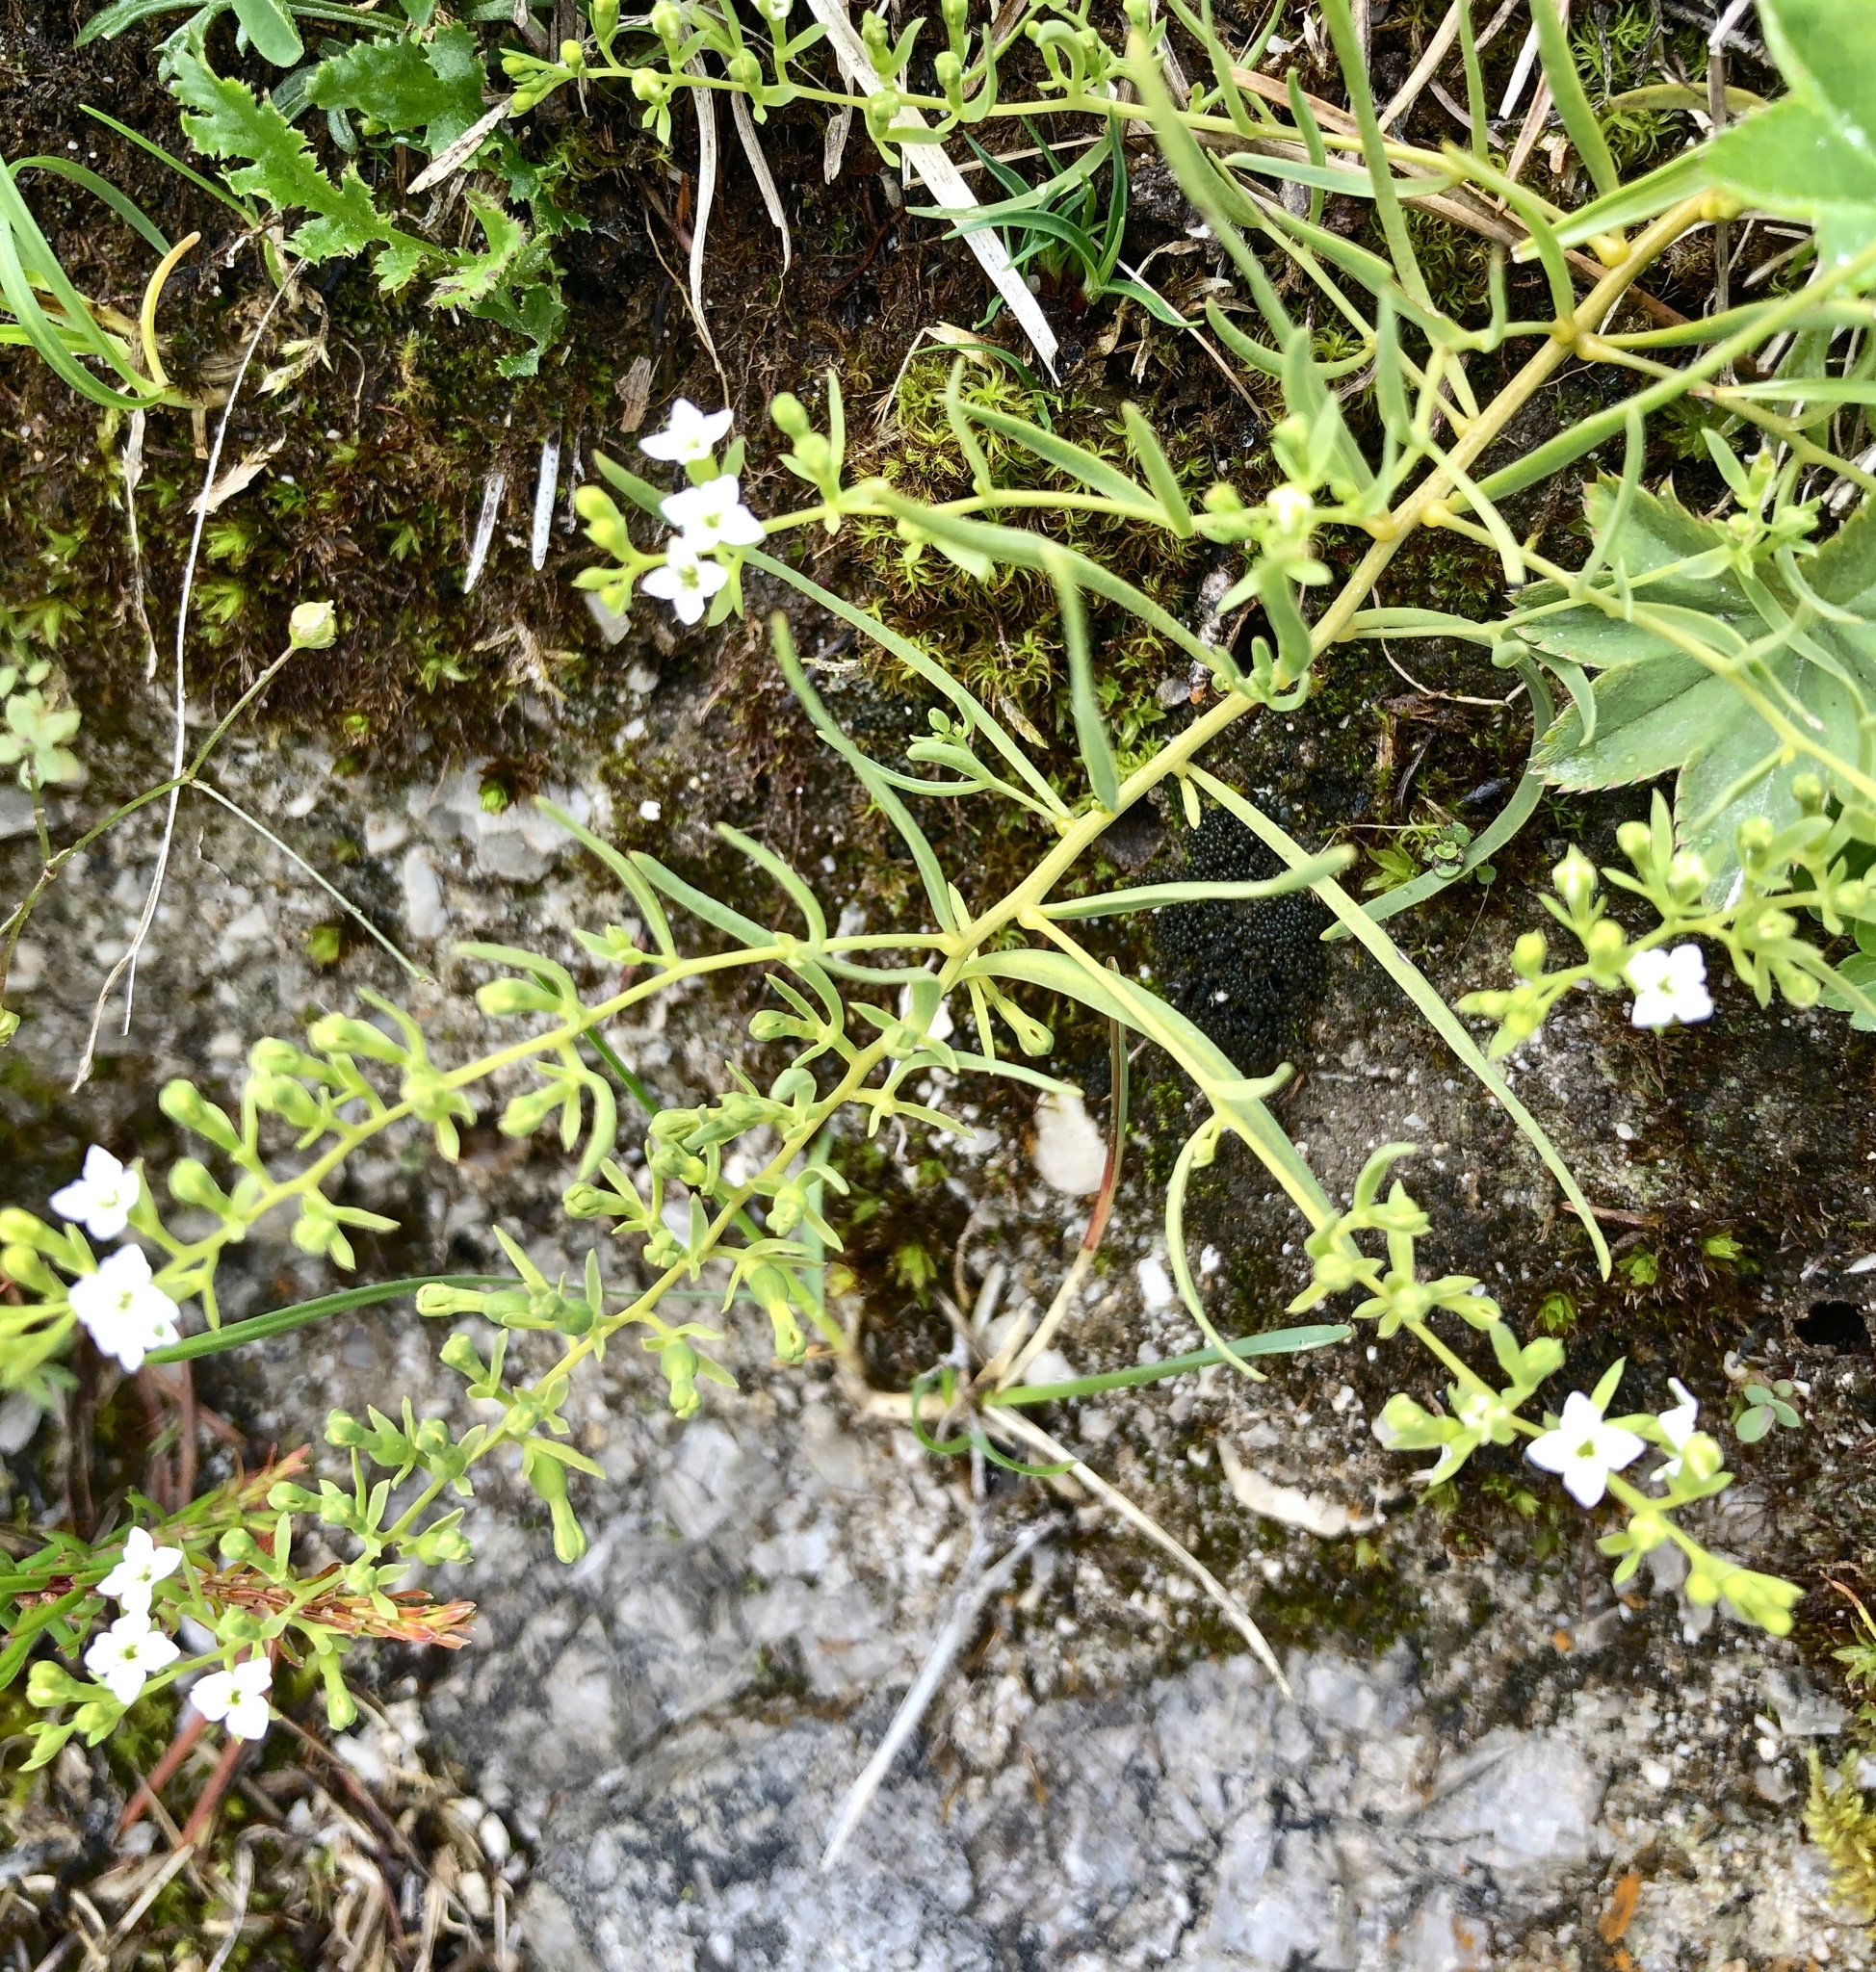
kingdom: Plantae
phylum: Tracheophyta
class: Magnoliopsida
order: Santalales
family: Thesiaceae
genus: Thesium
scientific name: Thesium alpinum
